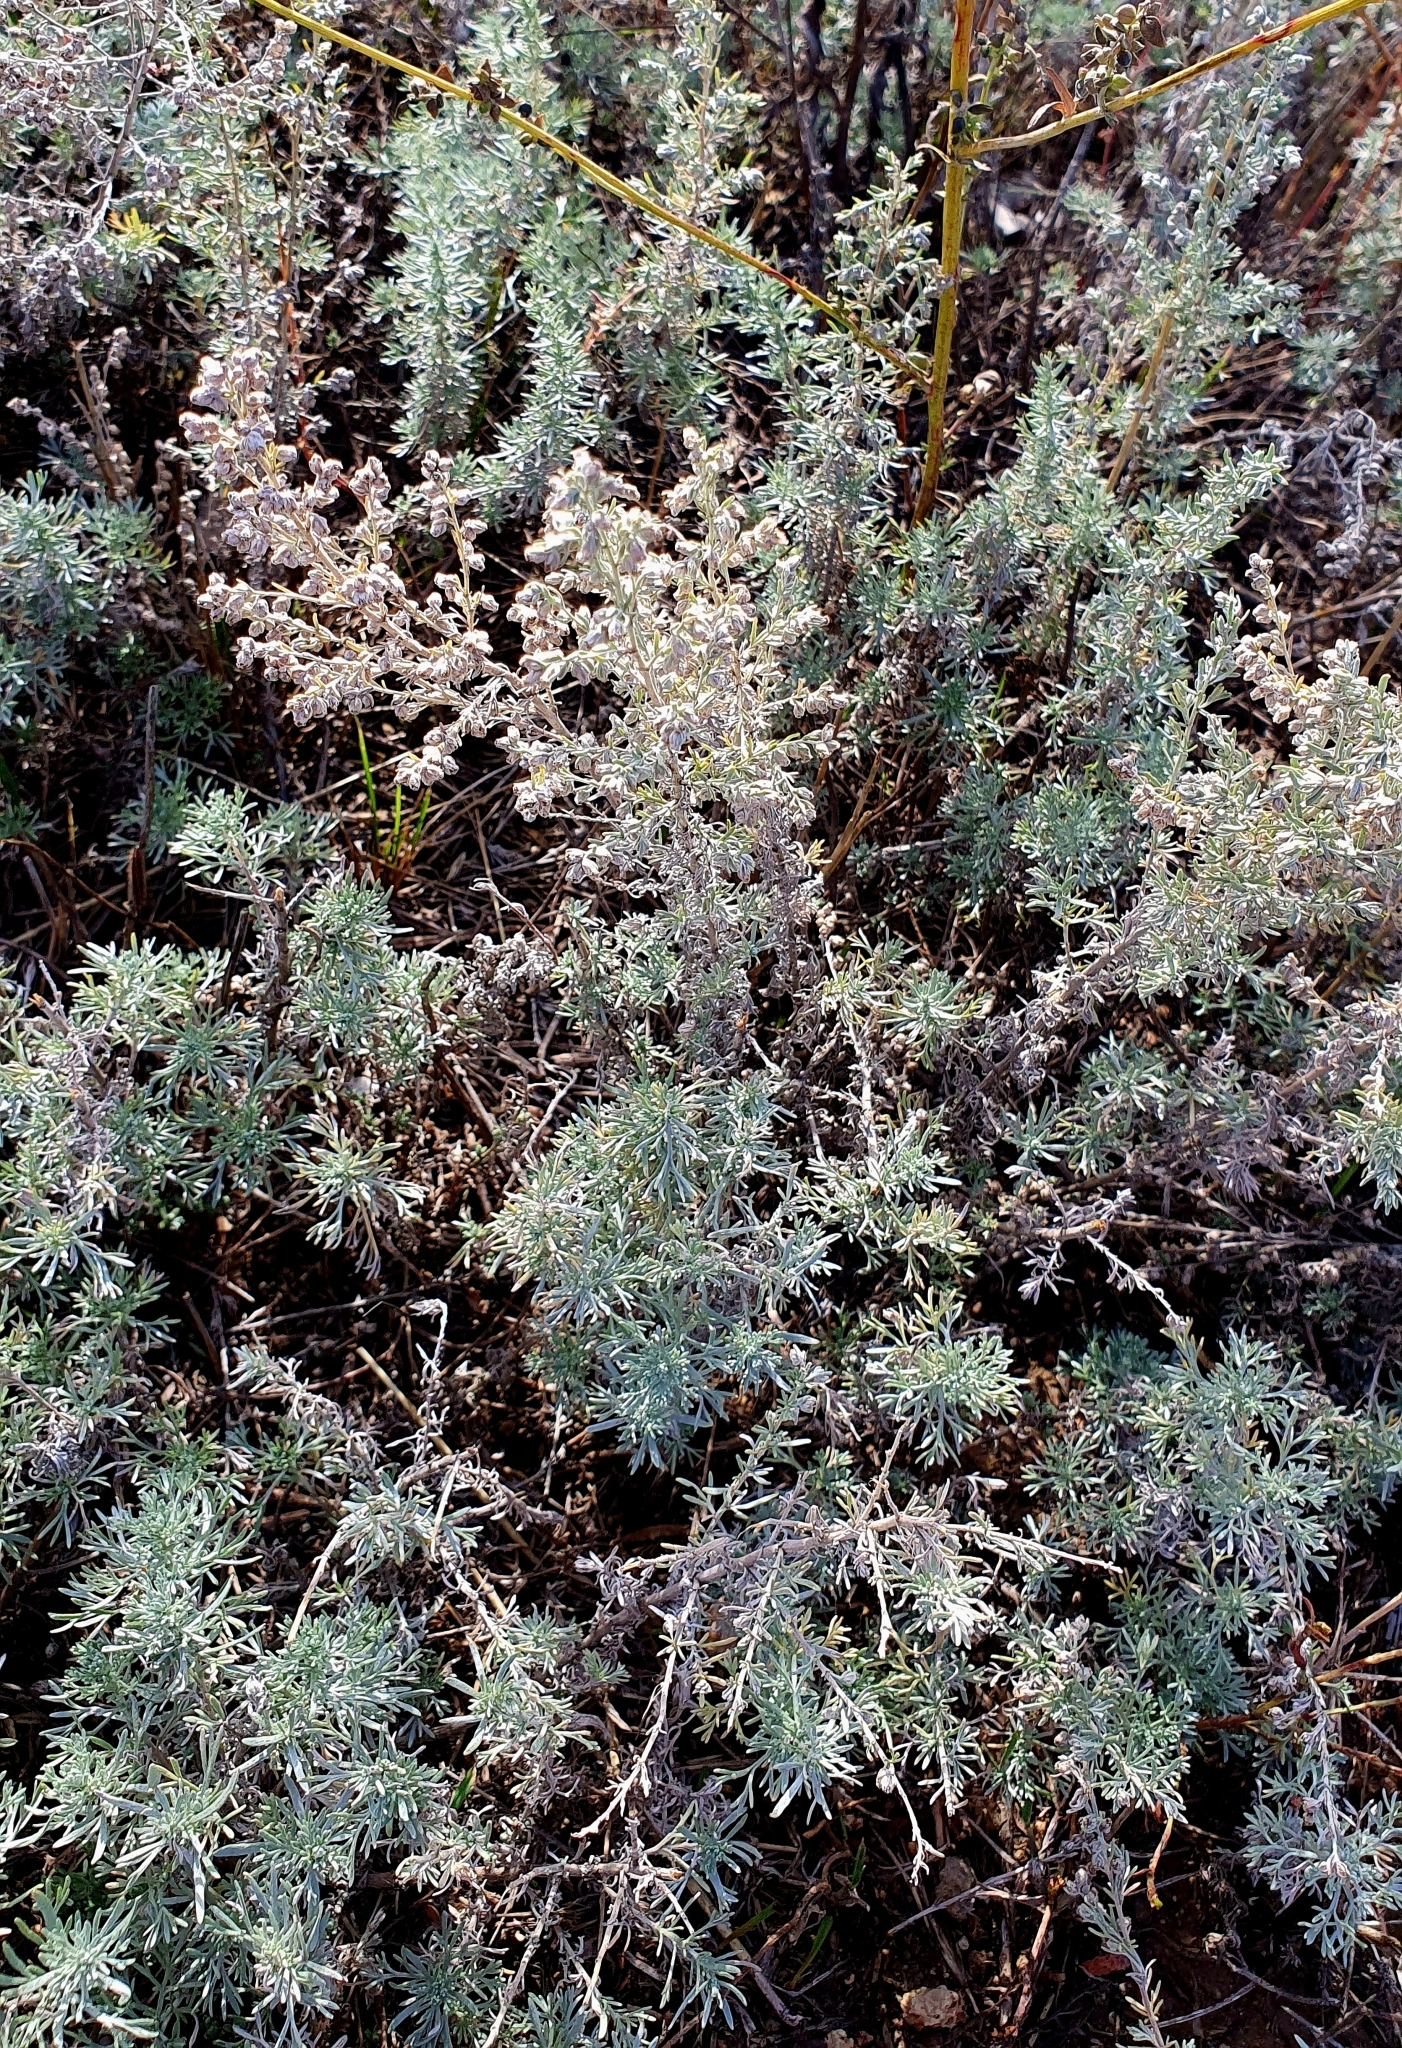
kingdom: Plantae
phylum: Tracheophyta
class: Magnoliopsida
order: Asterales
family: Asteraceae
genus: Artemisia
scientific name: Artemisia austriaca
